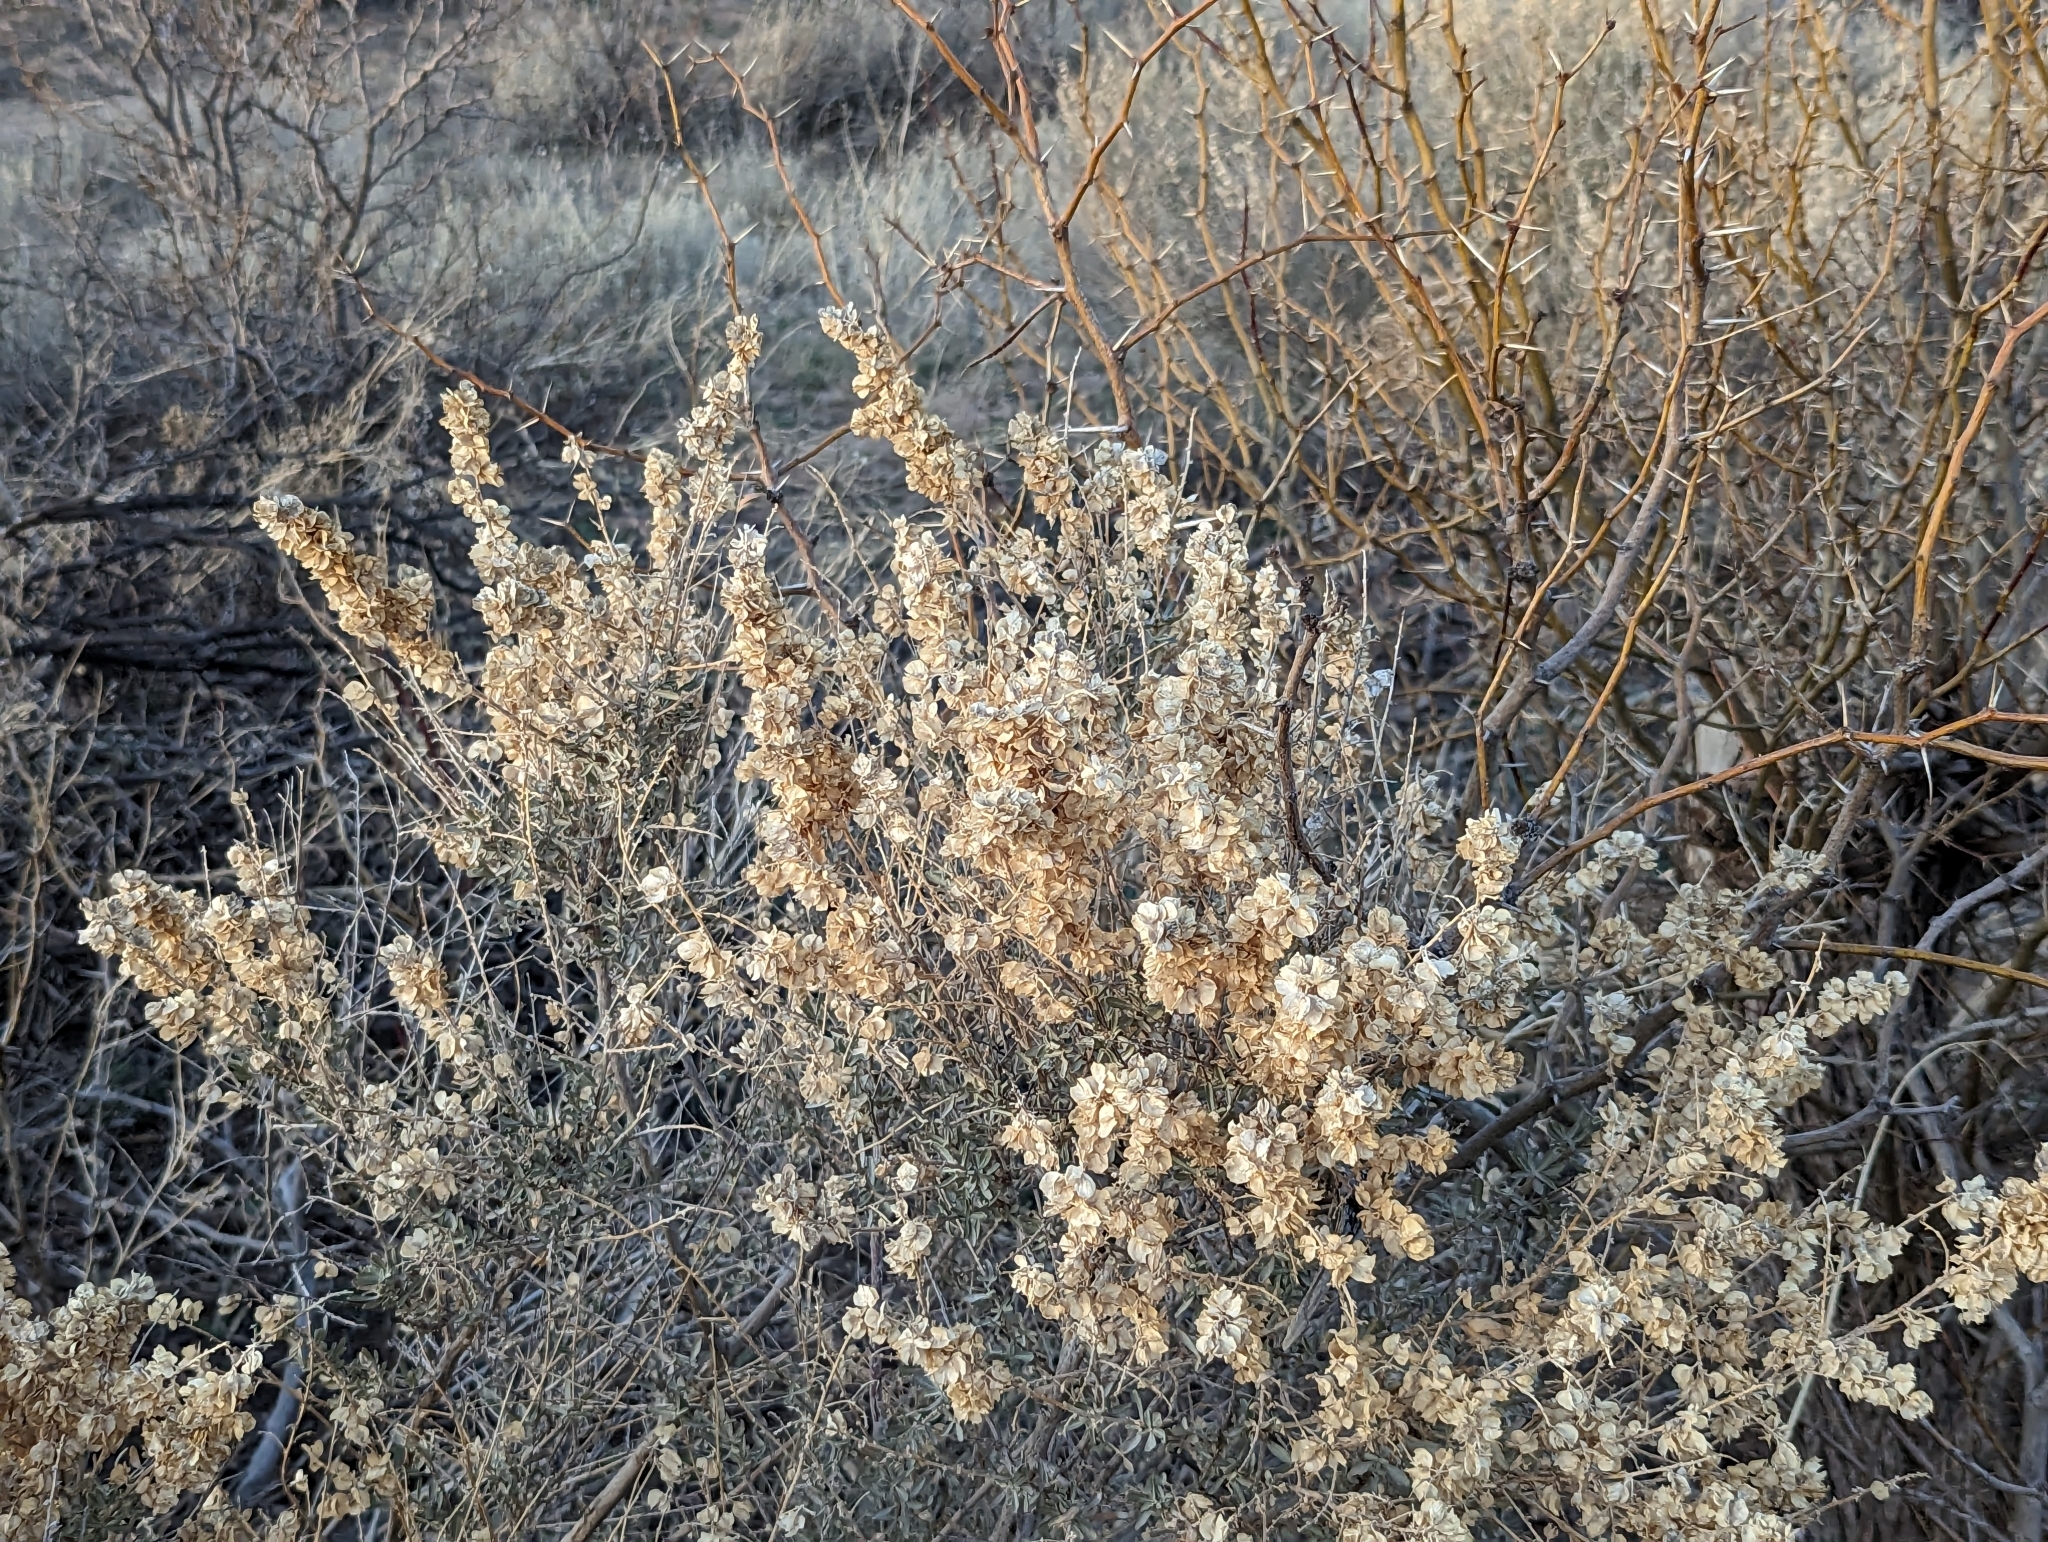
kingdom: Plantae
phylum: Tracheophyta
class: Magnoliopsida
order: Caryophyllales
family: Amaranthaceae
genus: Atriplex
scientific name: Atriplex canescens
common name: Four-wing saltbush
